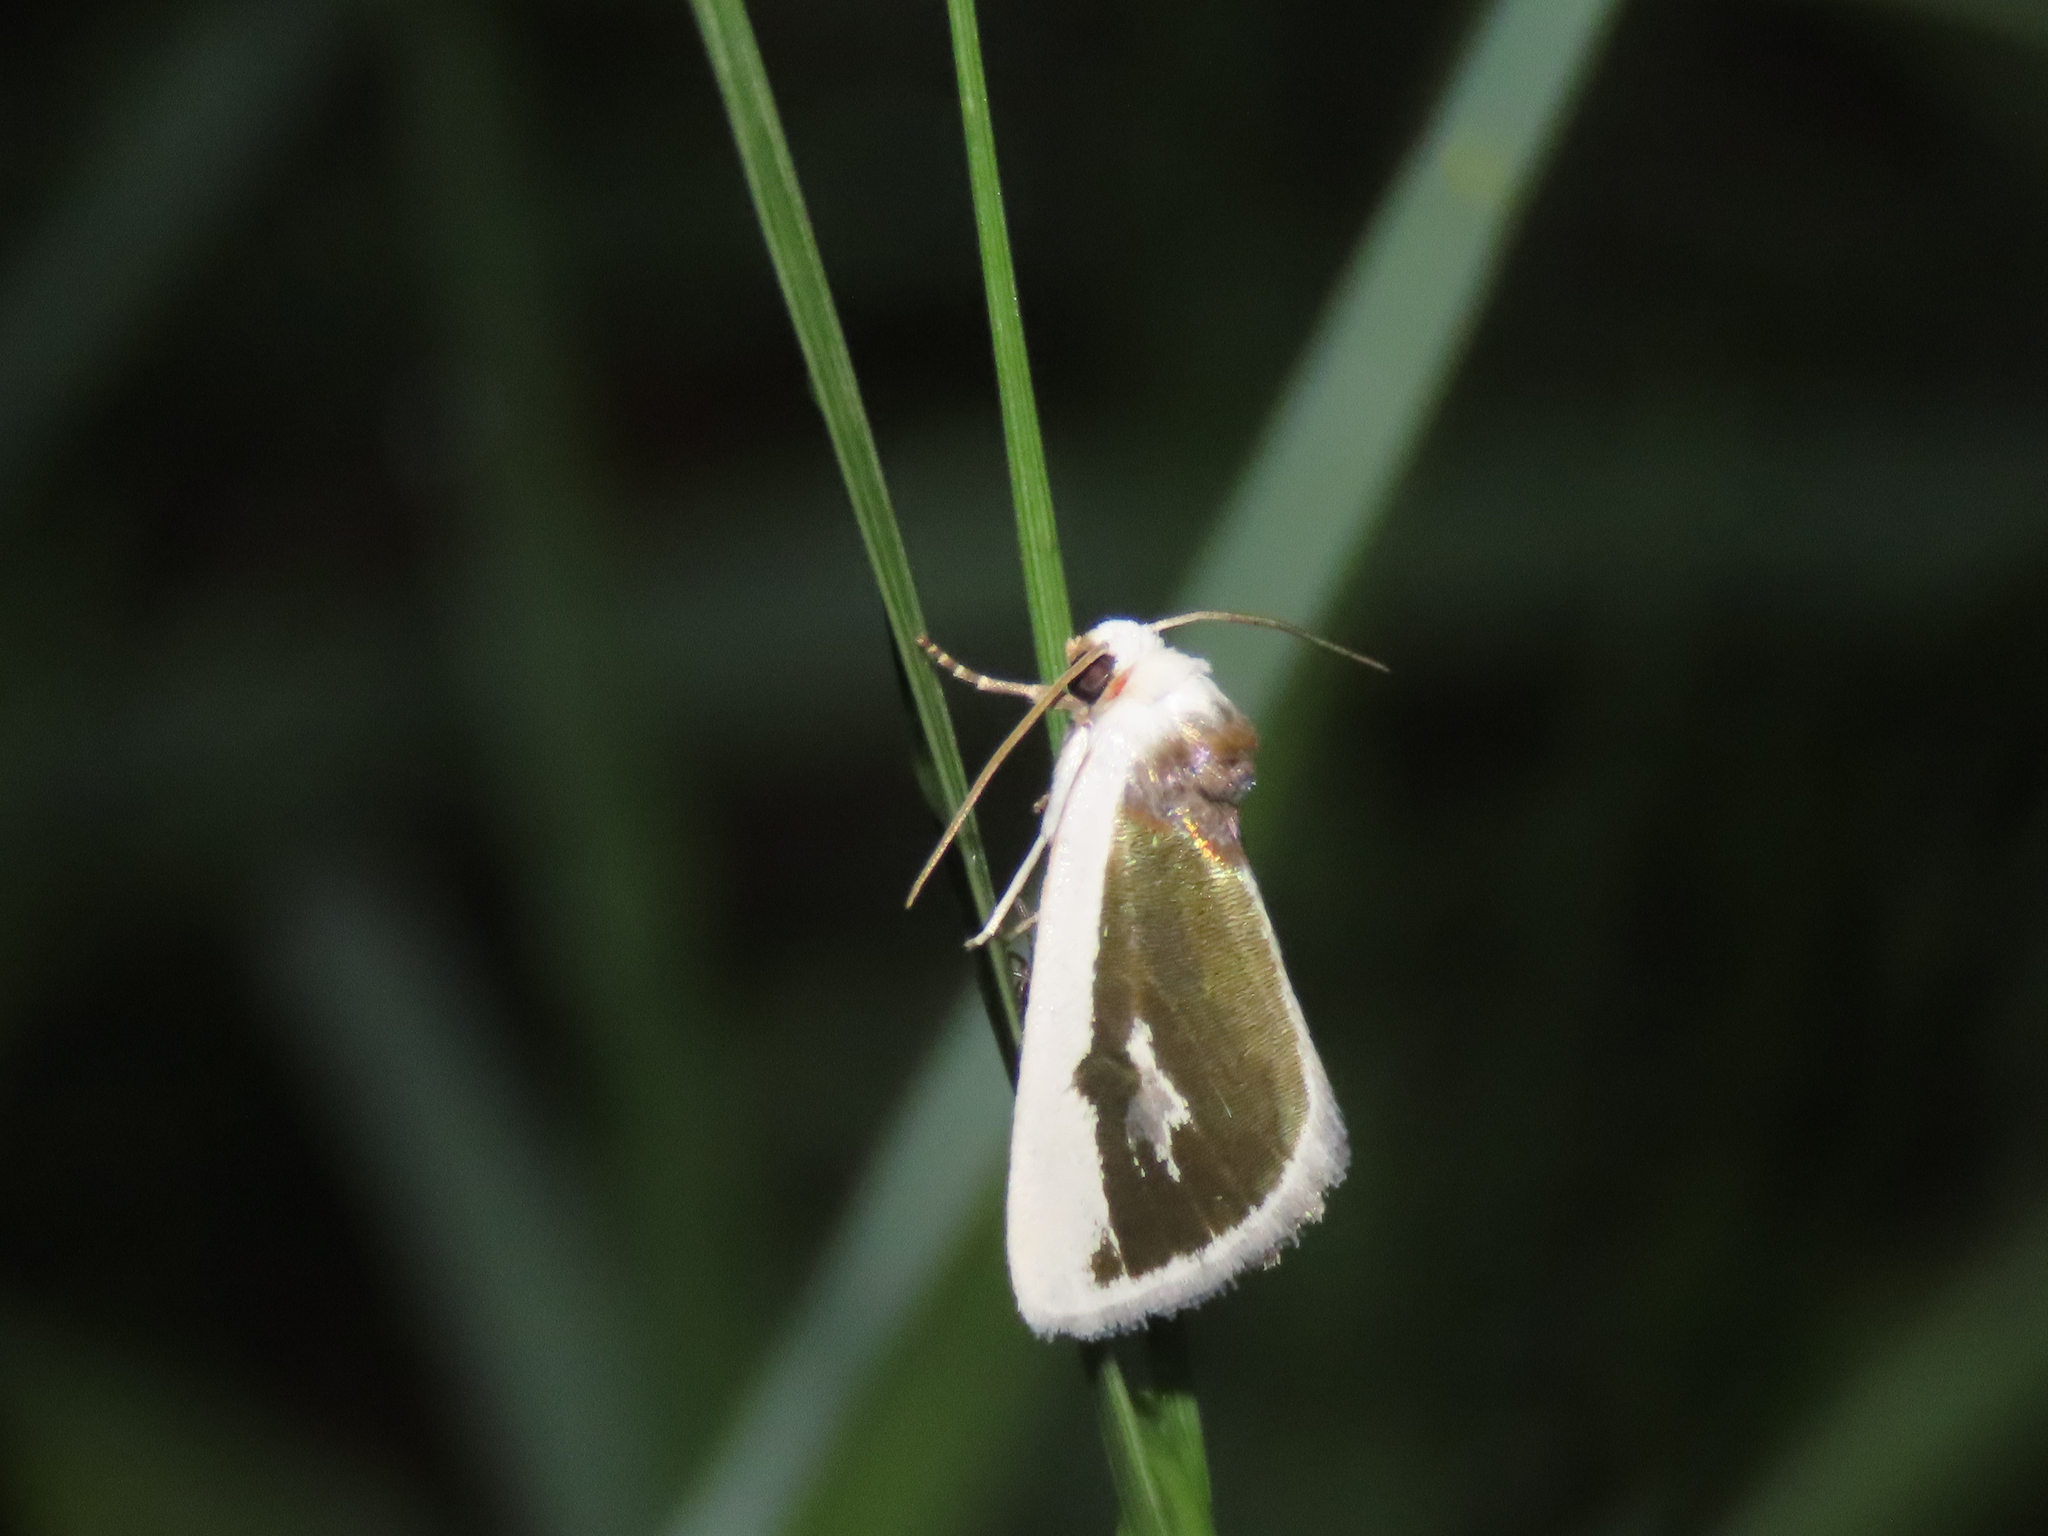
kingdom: Animalia
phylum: Arthropoda
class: Insecta
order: Lepidoptera
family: Noctuidae
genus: Neumoegenia
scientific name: Neumoegenia poetica
